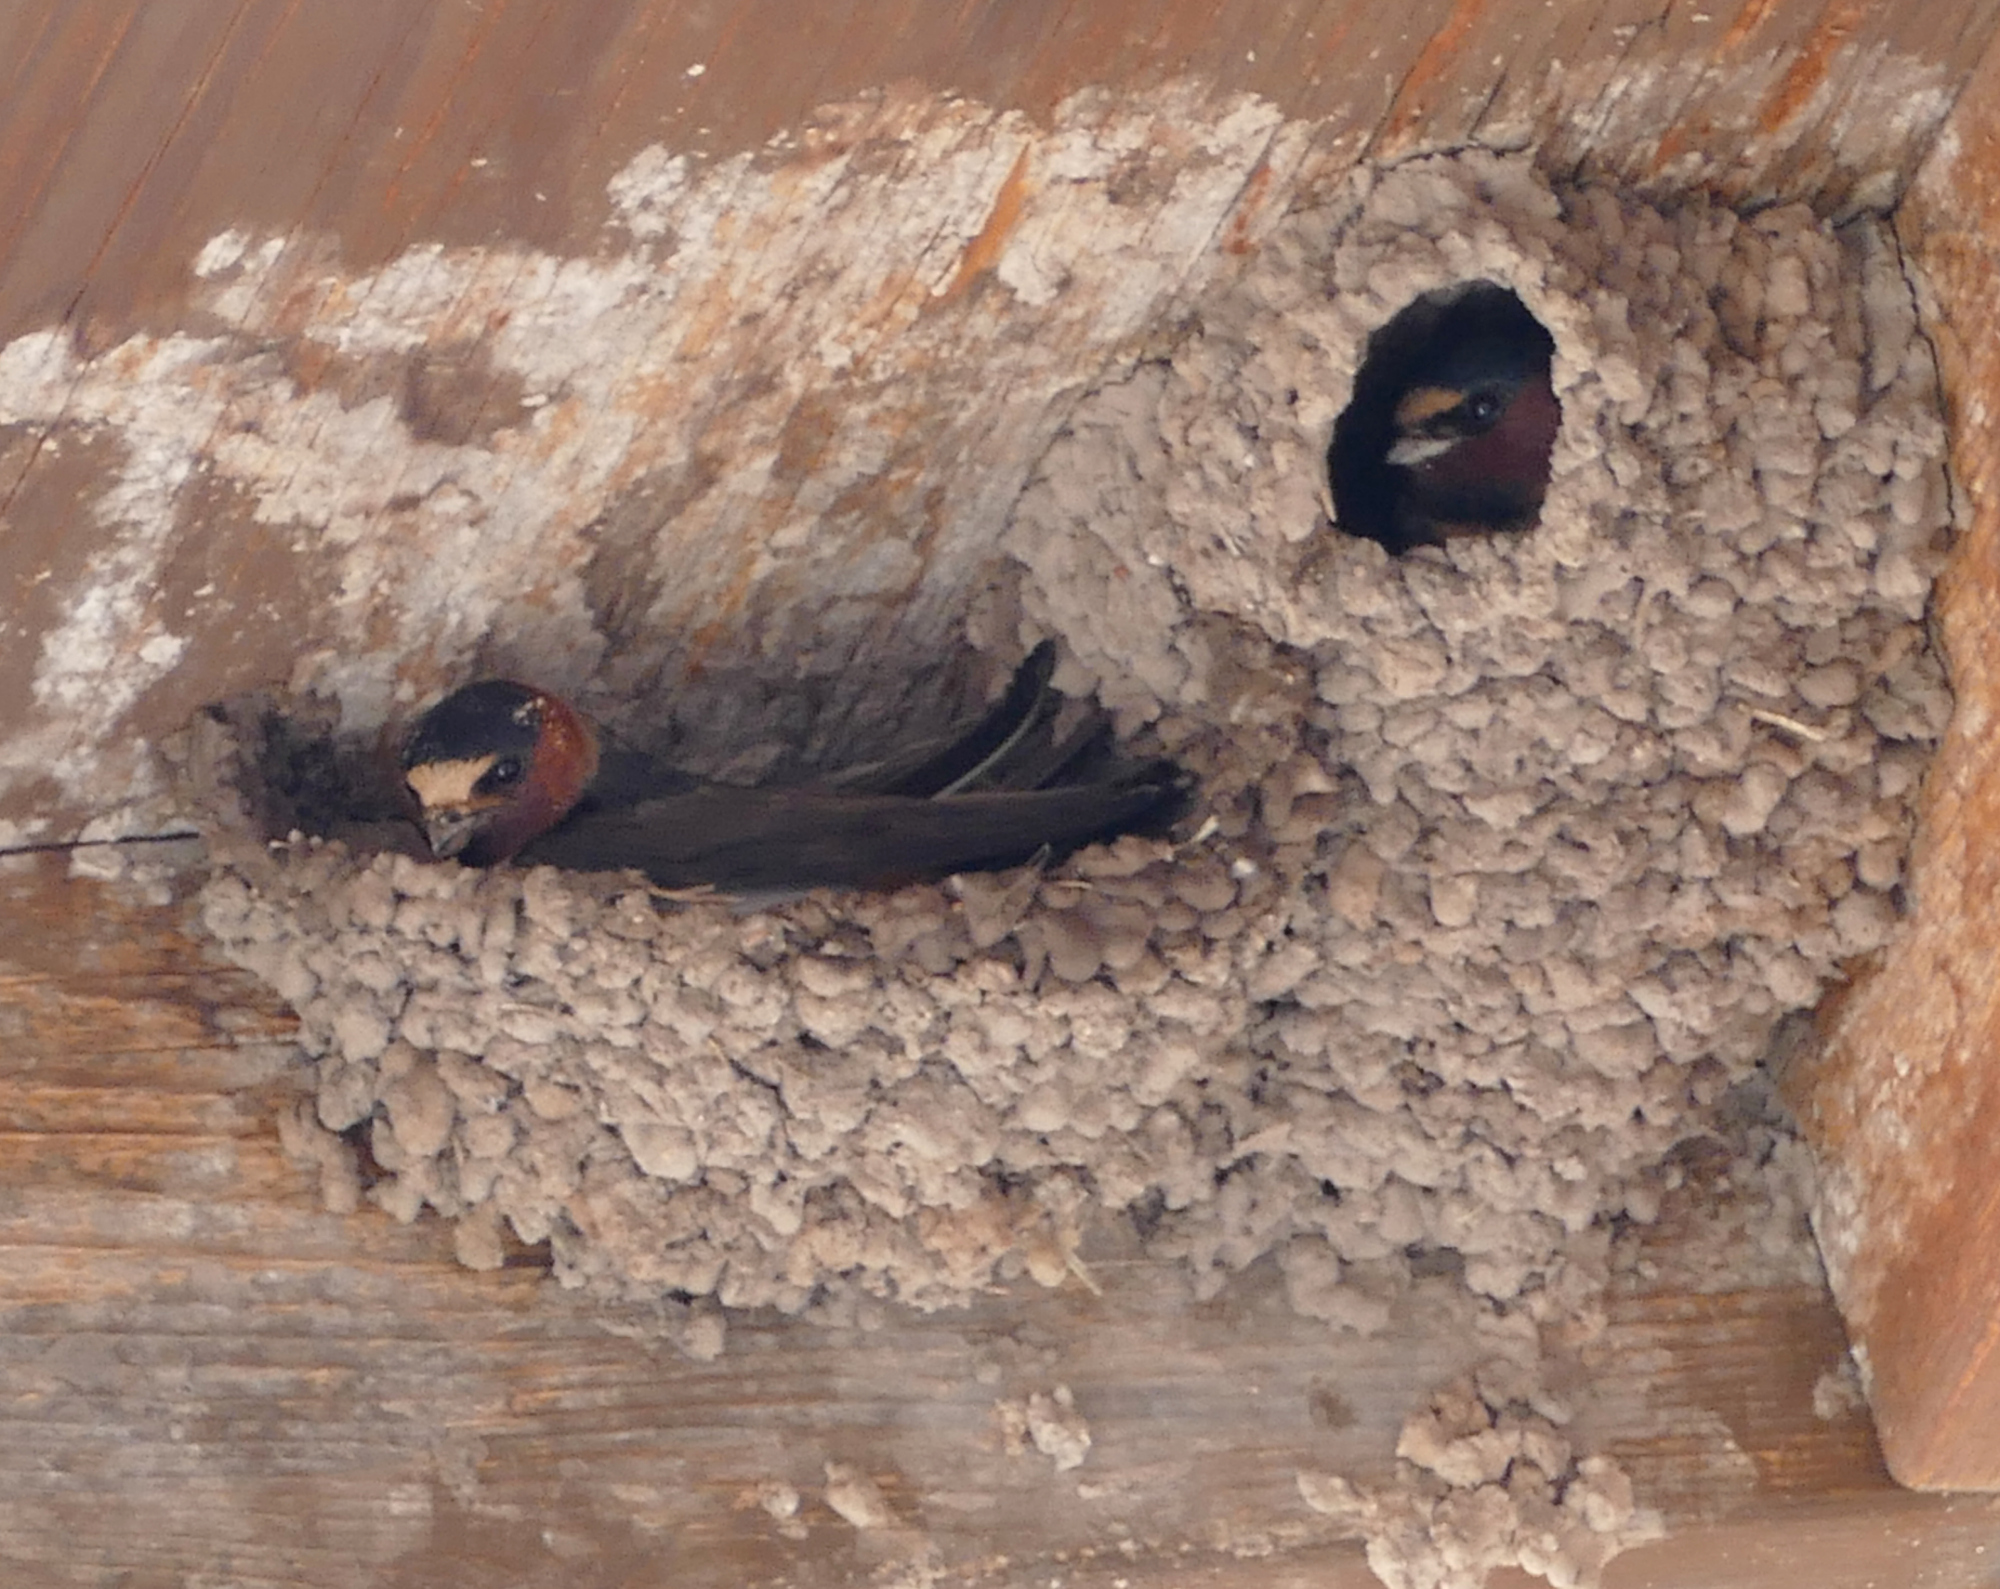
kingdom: Animalia
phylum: Chordata
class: Aves
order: Passeriformes
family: Hirundinidae
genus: Petrochelidon
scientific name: Petrochelidon pyrrhonota
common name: American cliff swallow
